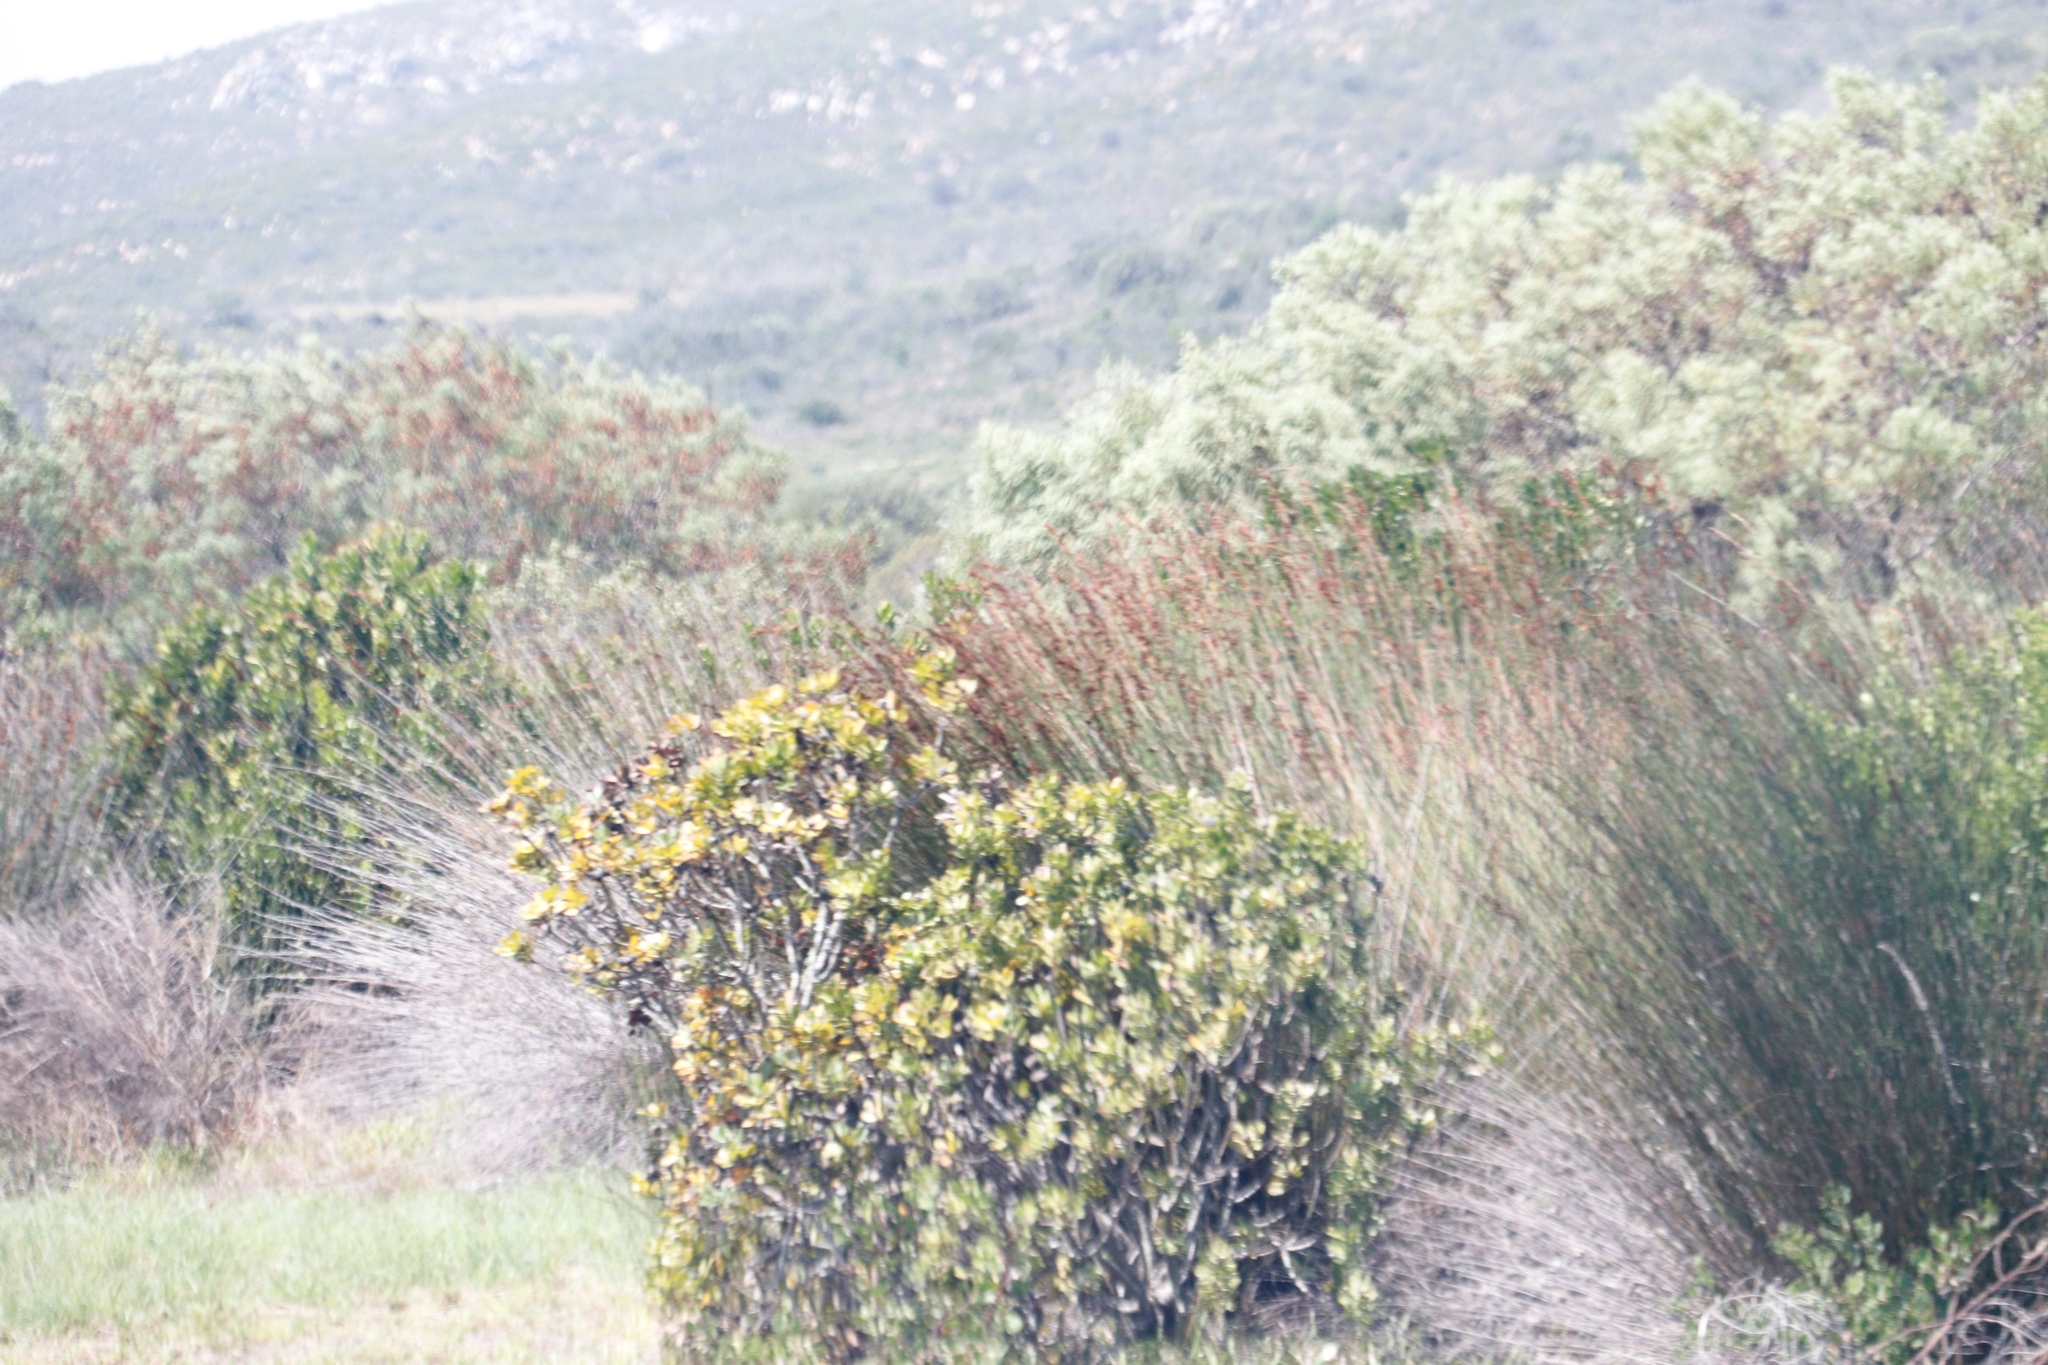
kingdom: Plantae
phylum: Tracheophyta
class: Magnoliopsida
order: Proteales
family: Proteaceae
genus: Leucospermum
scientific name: Leucospermum praecox
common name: Mossel bay pincushion
